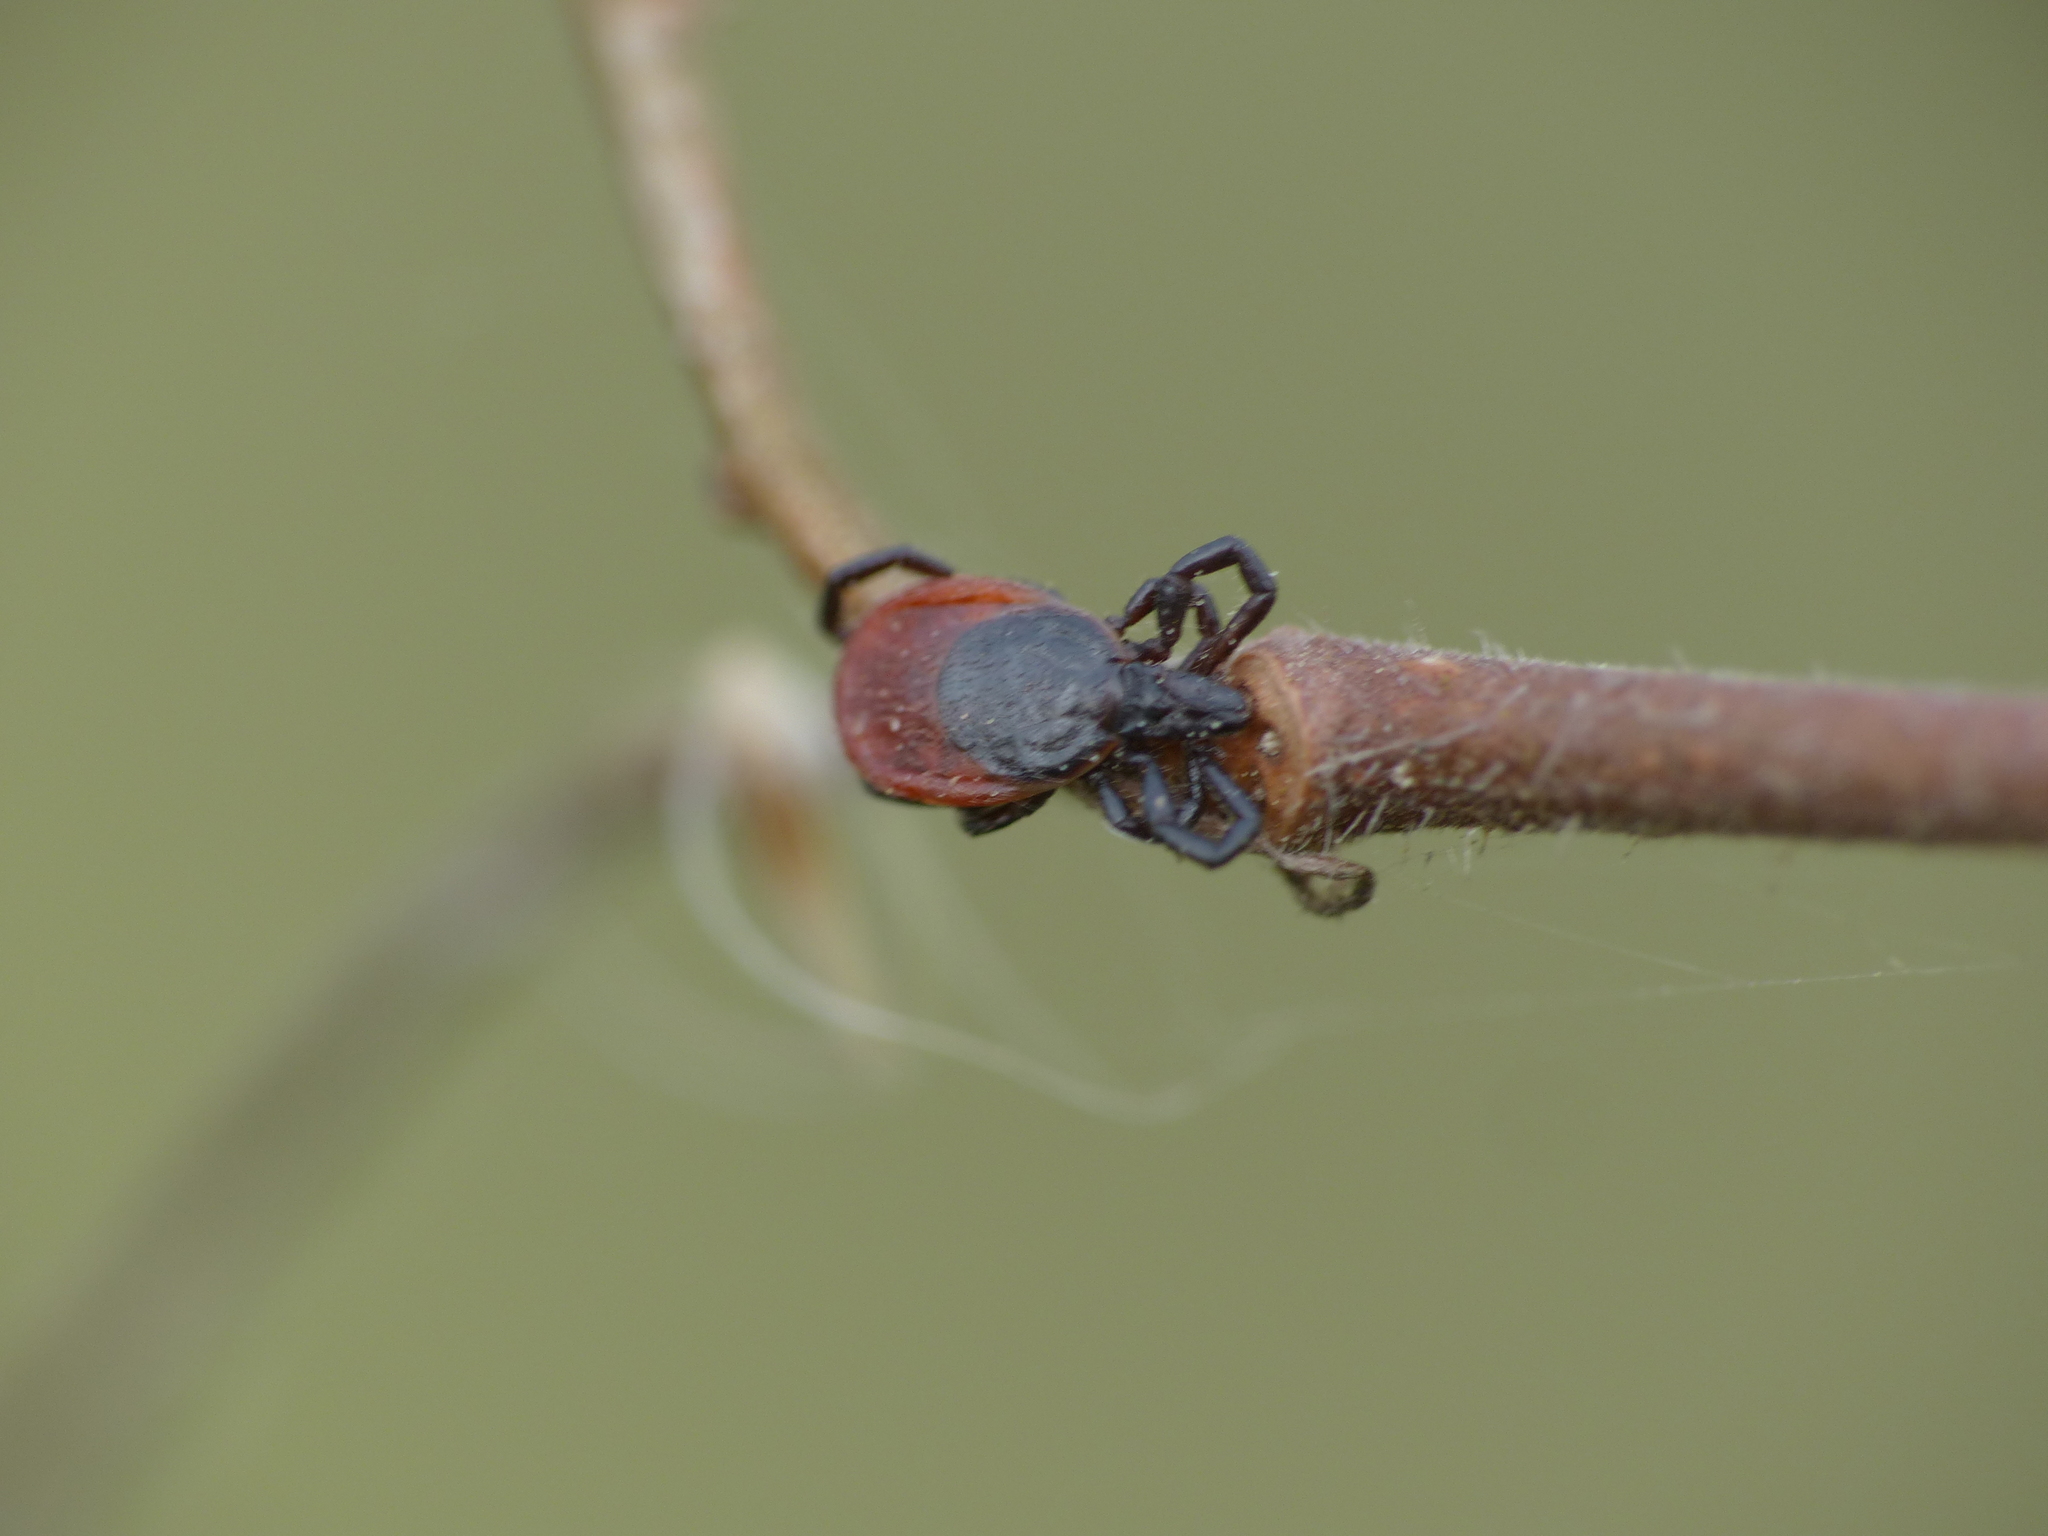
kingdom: Animalia
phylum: Arthropoda
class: Arachnida
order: Ixodida
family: Ixodidae
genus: Ixodes
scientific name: Ixodes ricinus
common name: Castor bean tick
